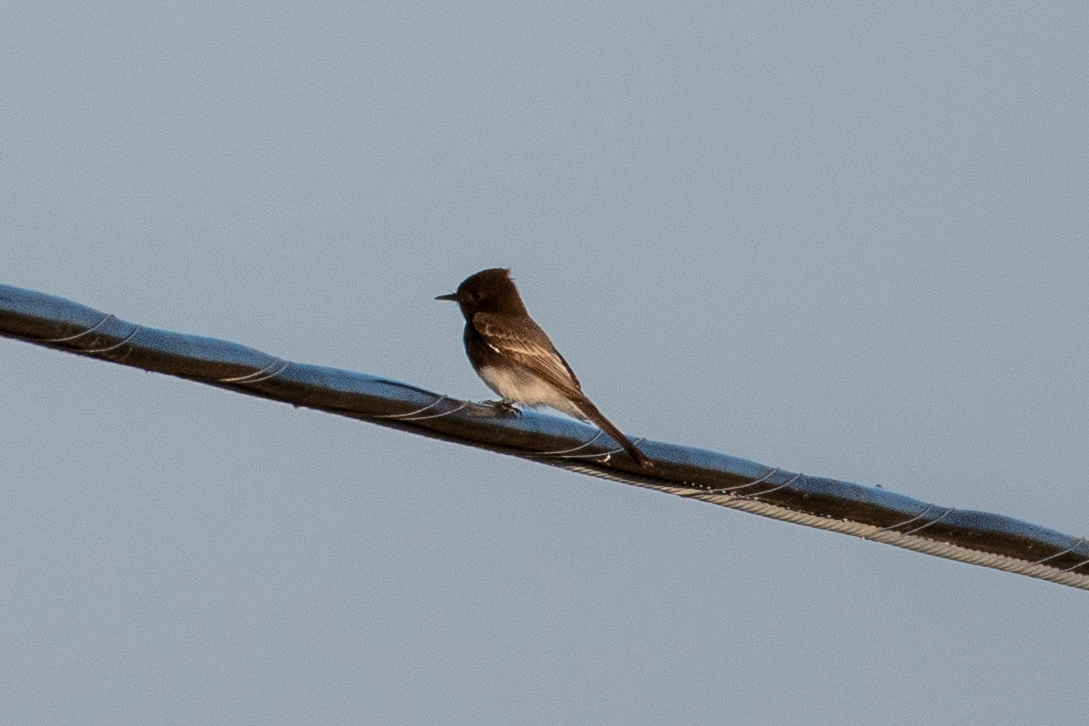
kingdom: Animalia
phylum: Chordata
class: Aves
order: Passeriformes
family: Tyrannidae
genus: Sayornis
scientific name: Sayornis nigricans
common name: Black phoebe
